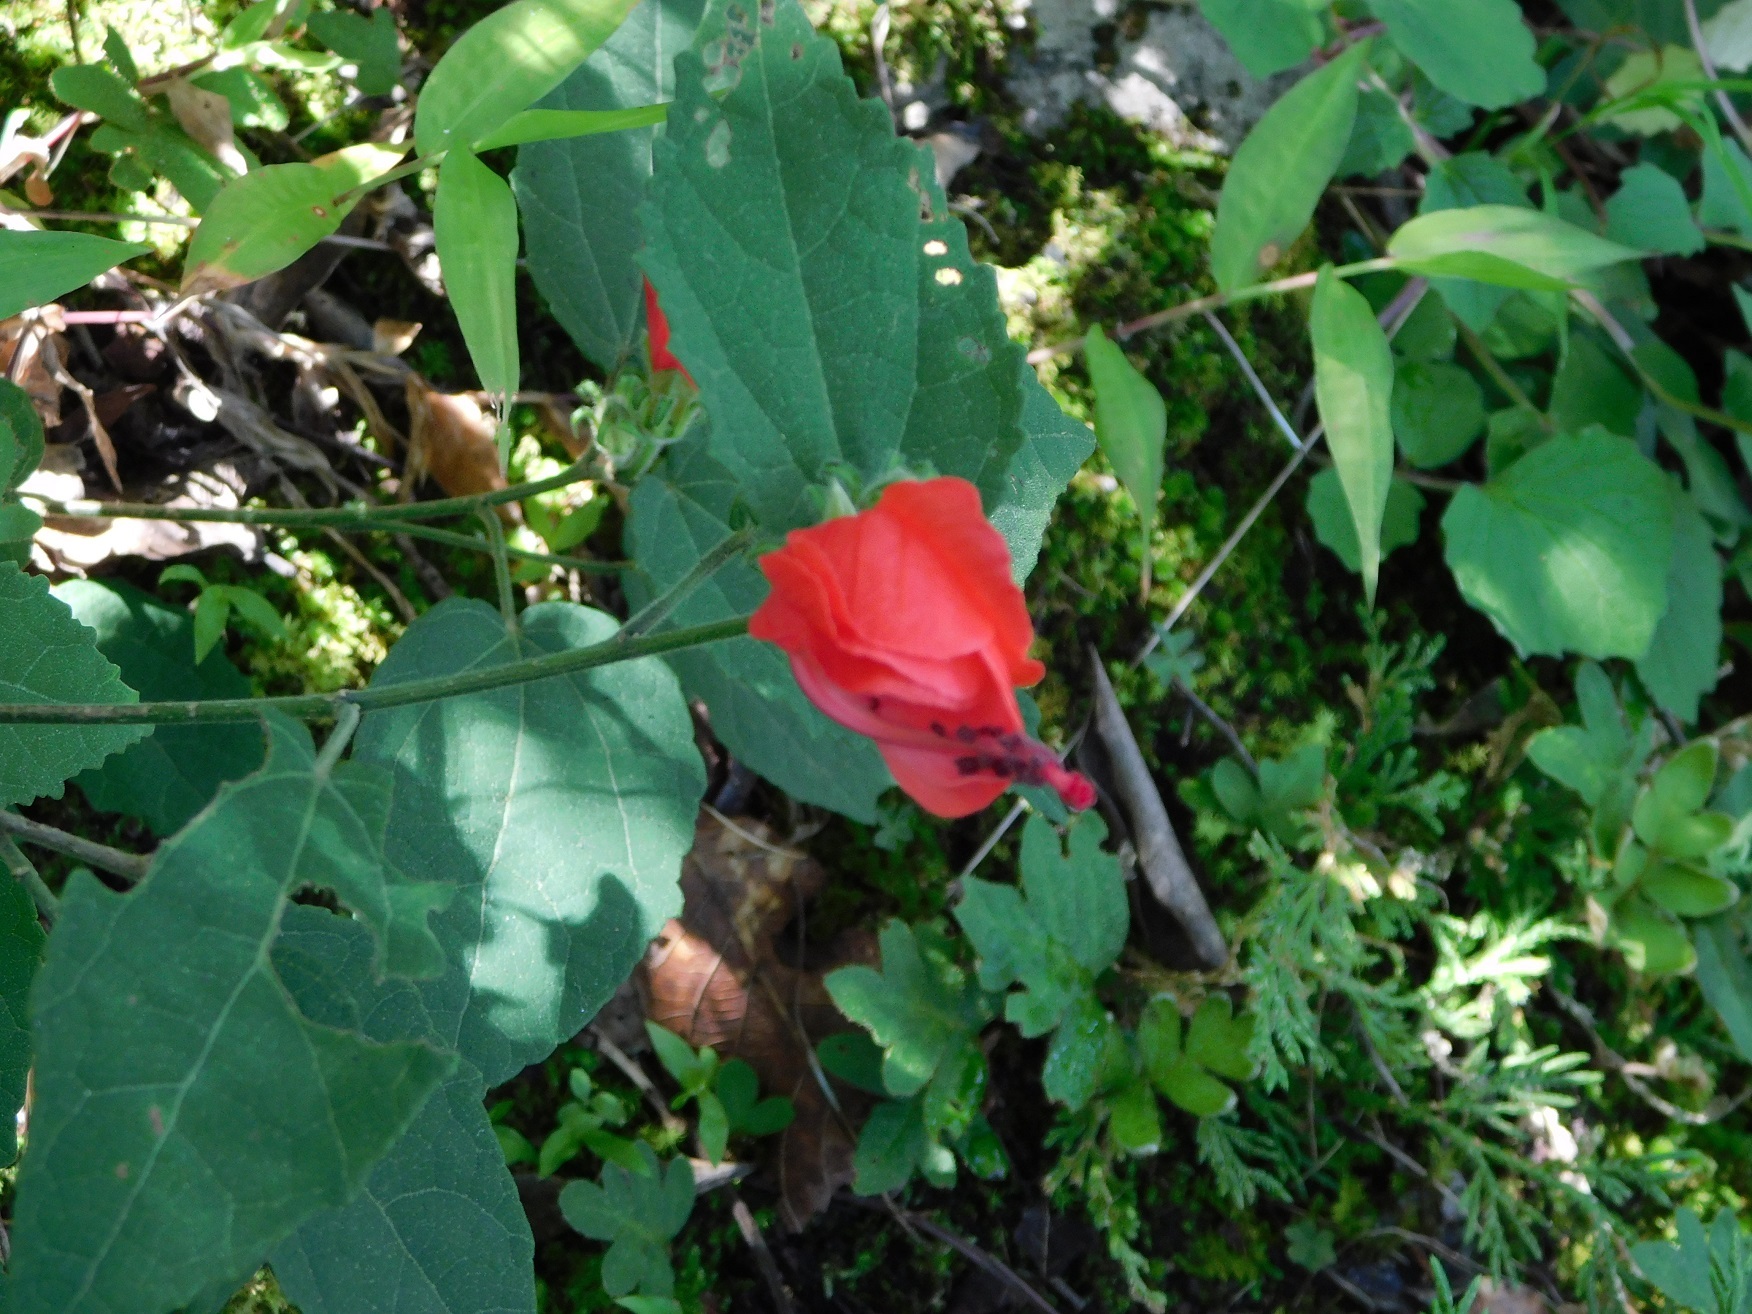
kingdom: Plantae
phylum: Tracheophyta
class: Magnoliopsida
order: Malvales
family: Malvaceae
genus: Malvaviscus
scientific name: Malvaviscus arboreus
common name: Wax mallow
